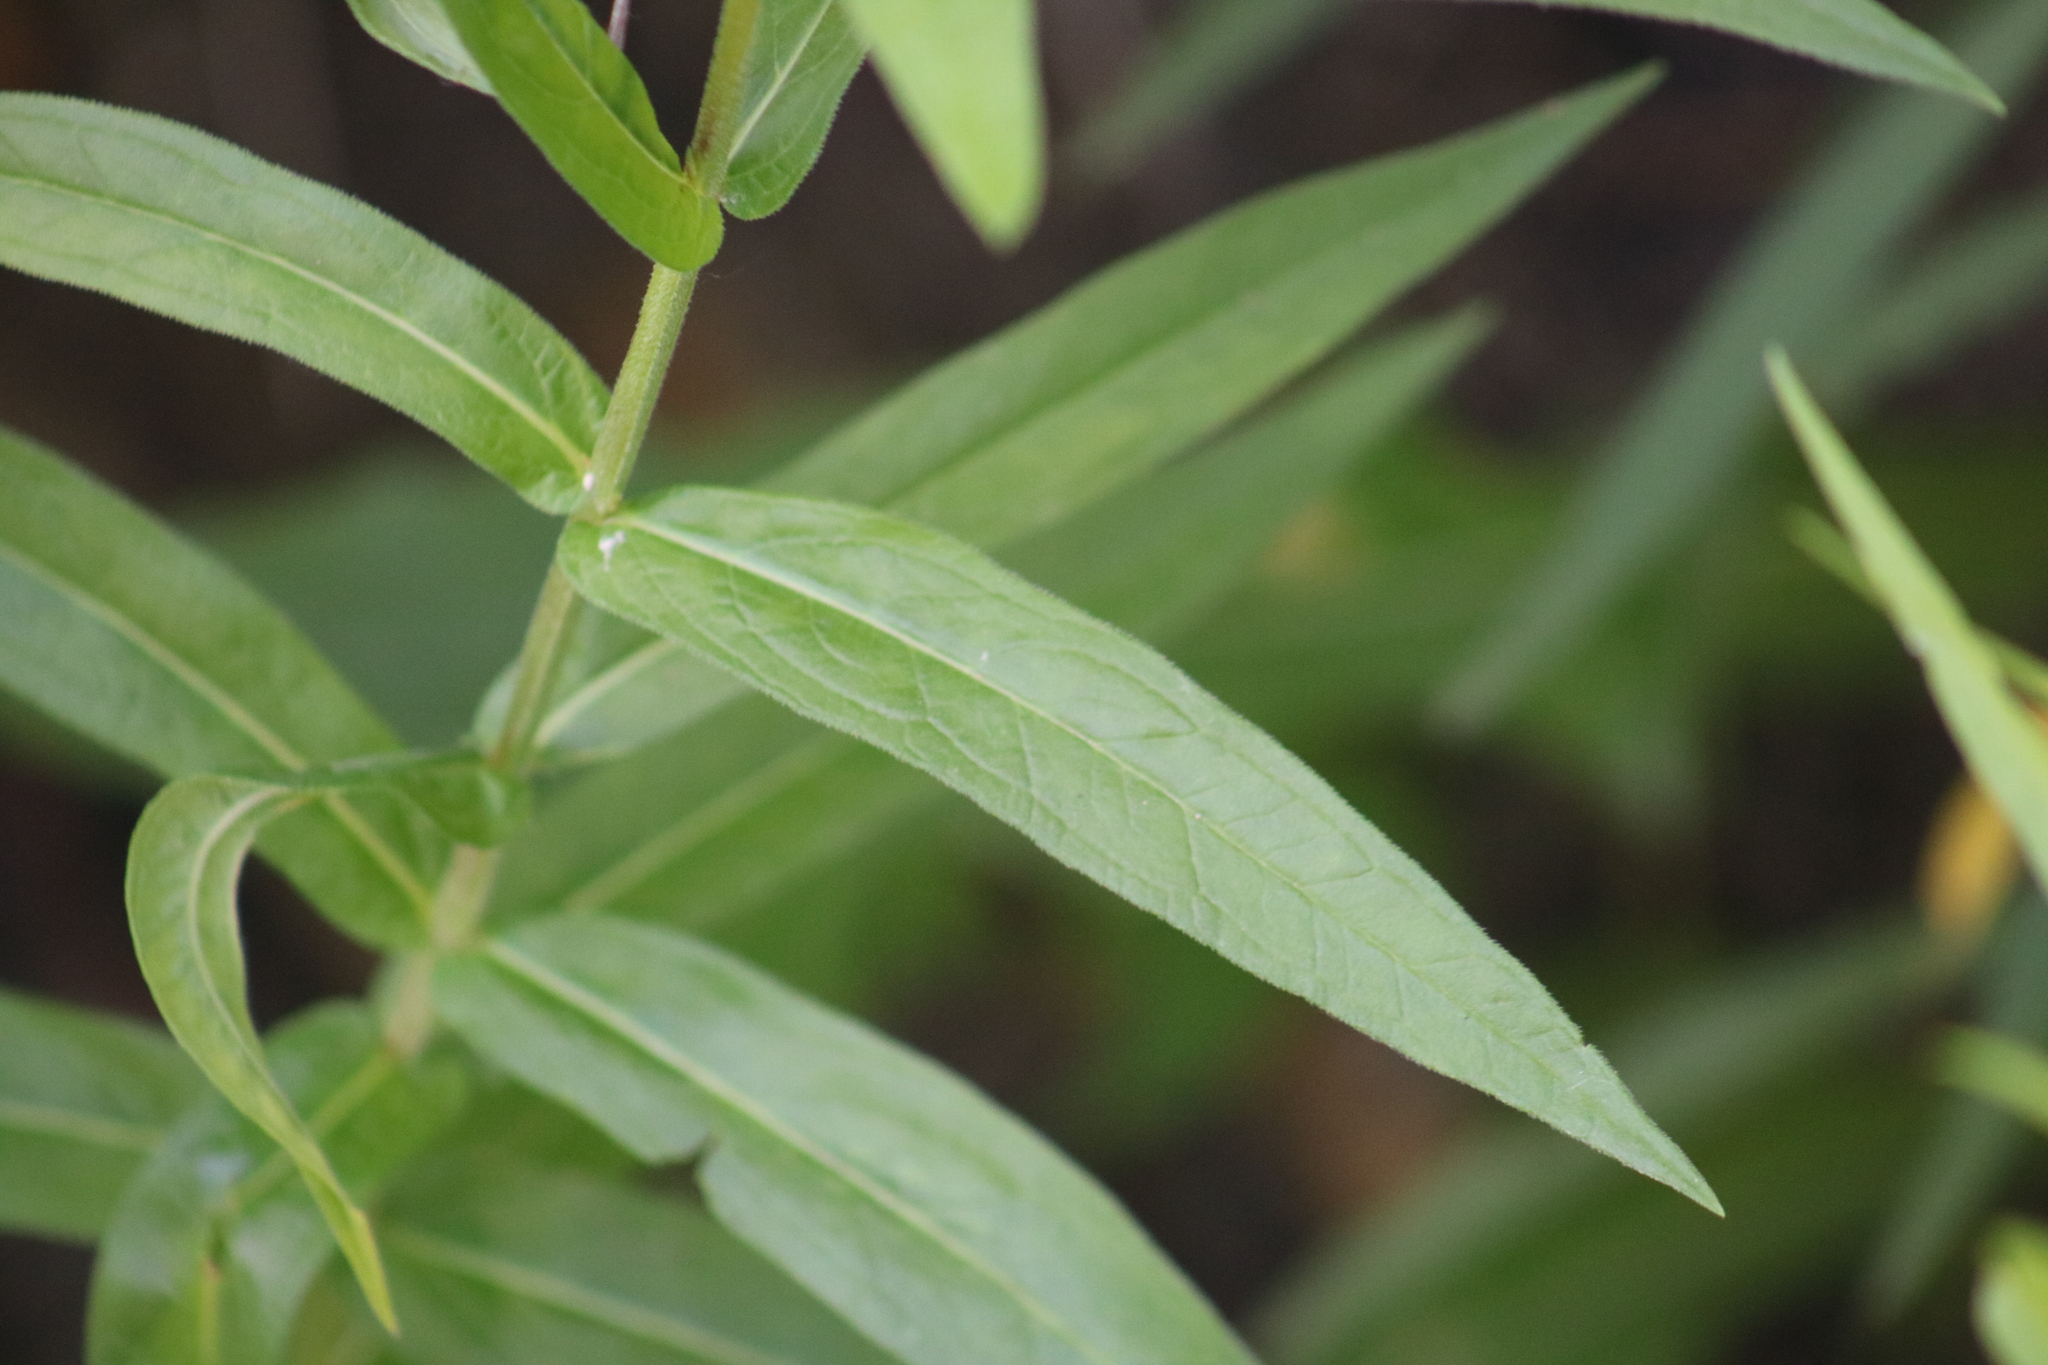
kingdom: Plantae
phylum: Tracheophyta
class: Magnoliopsida
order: Myrtales
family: Lythraceae
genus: Lythrum
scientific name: Lythrum salicaria
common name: Purple loosestrife
